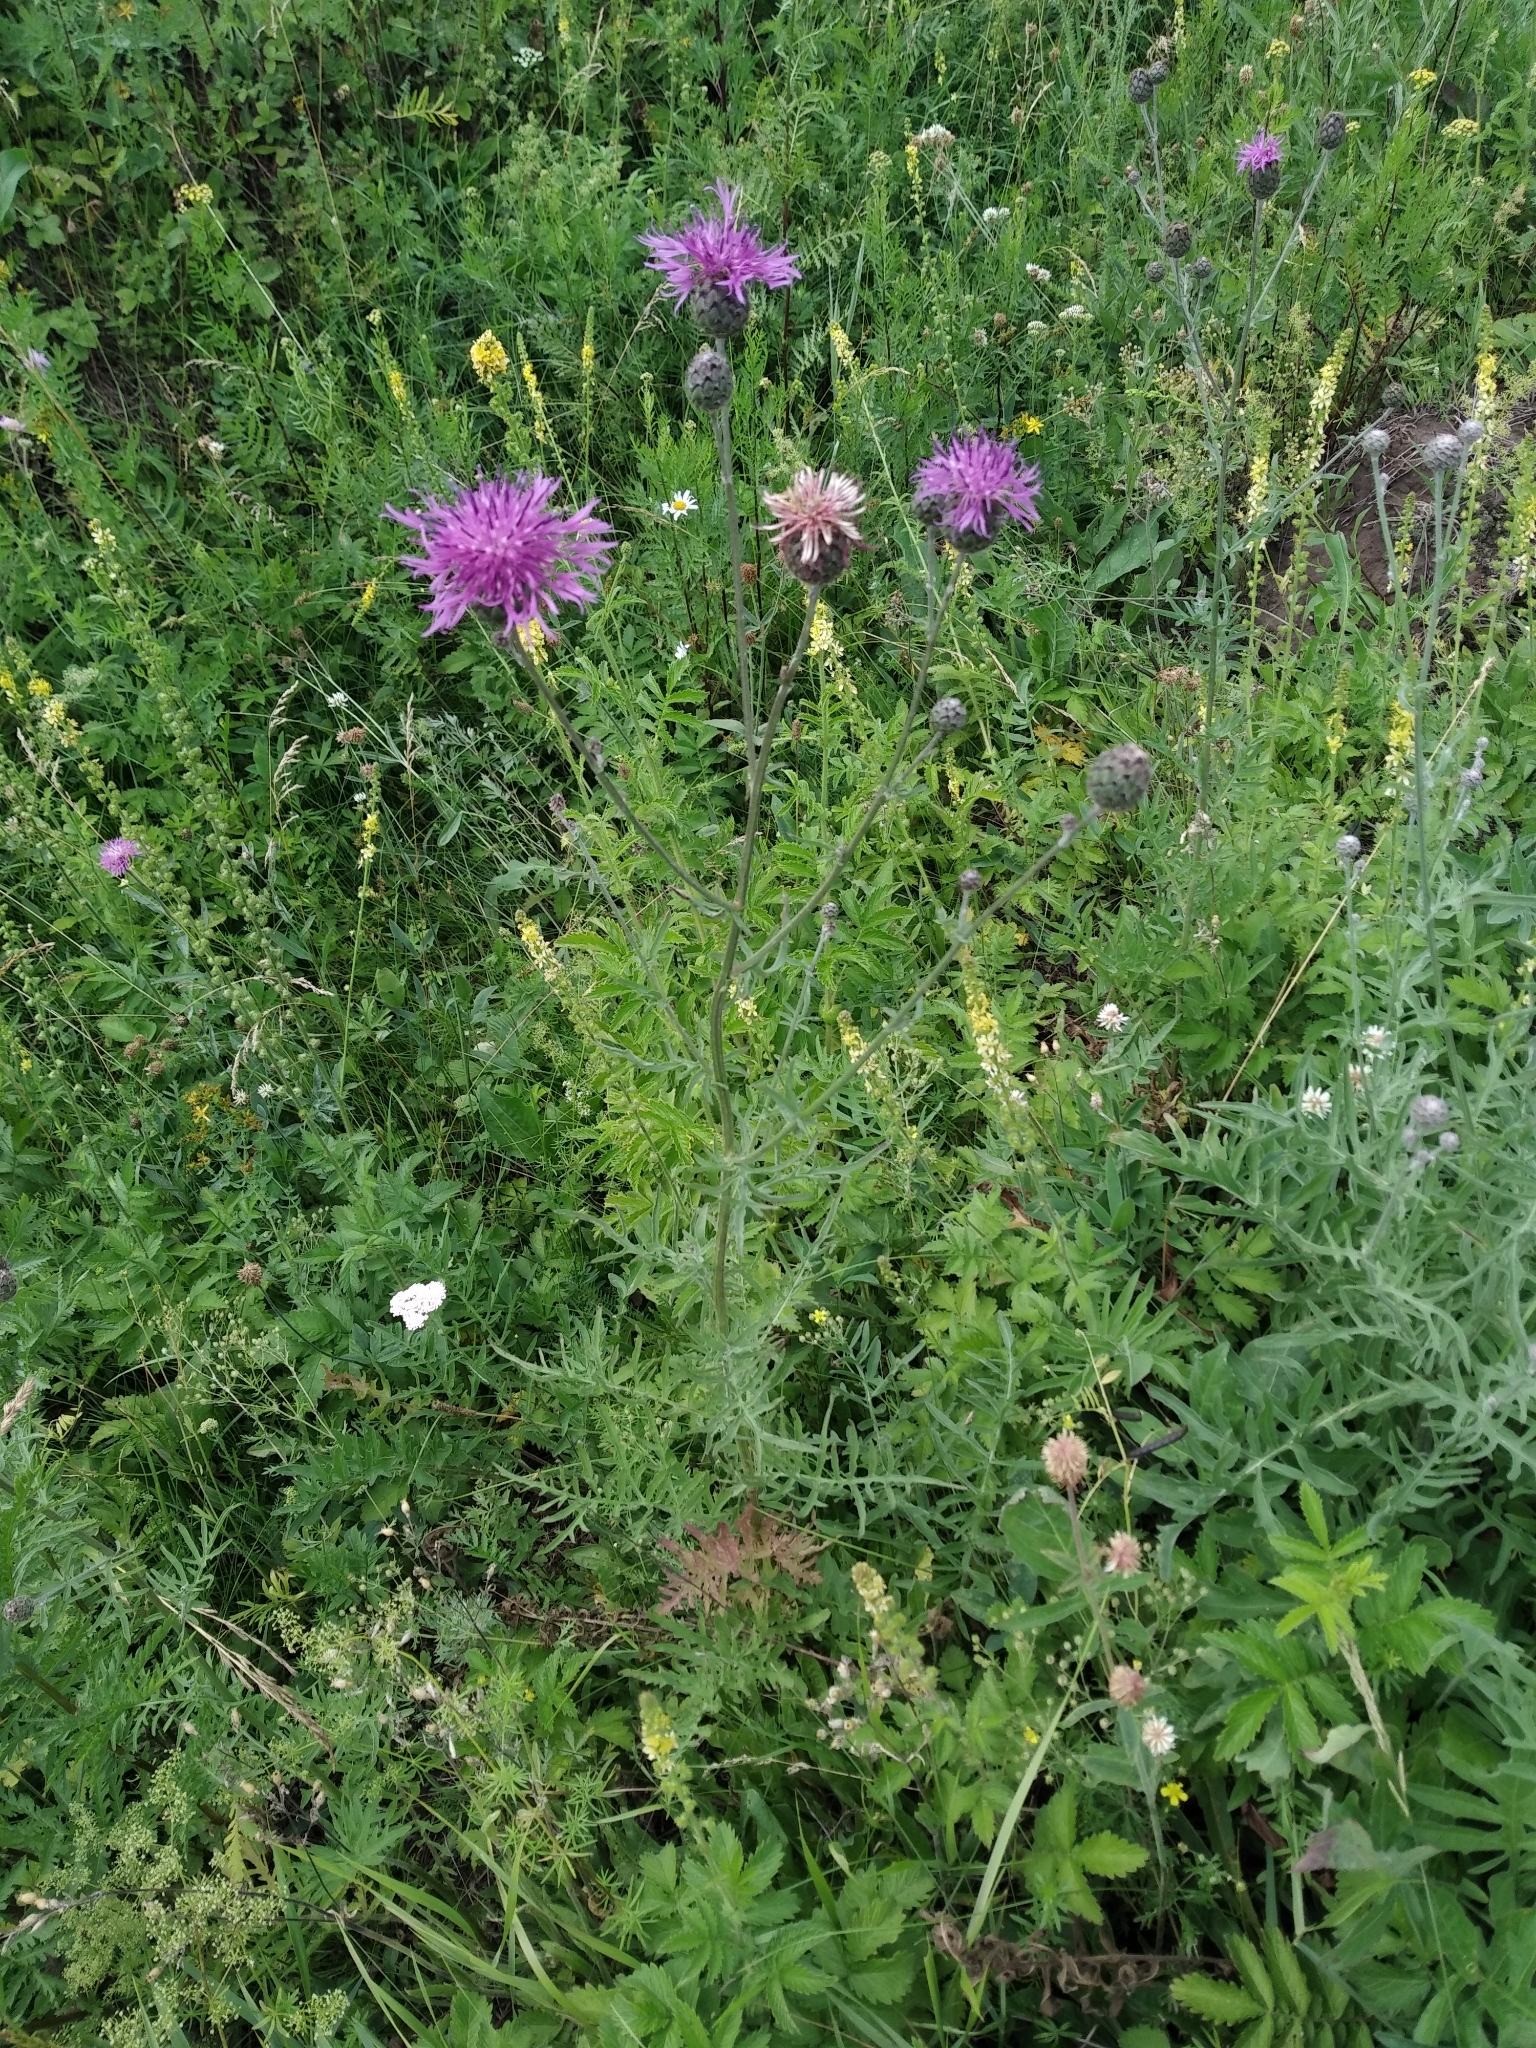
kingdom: Plantae
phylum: Tracheophyta
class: Magnoliopsida
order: Asterales
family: Asteraceae
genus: Centaurea
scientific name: Centaurea scabiosa
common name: Greater knapweed
